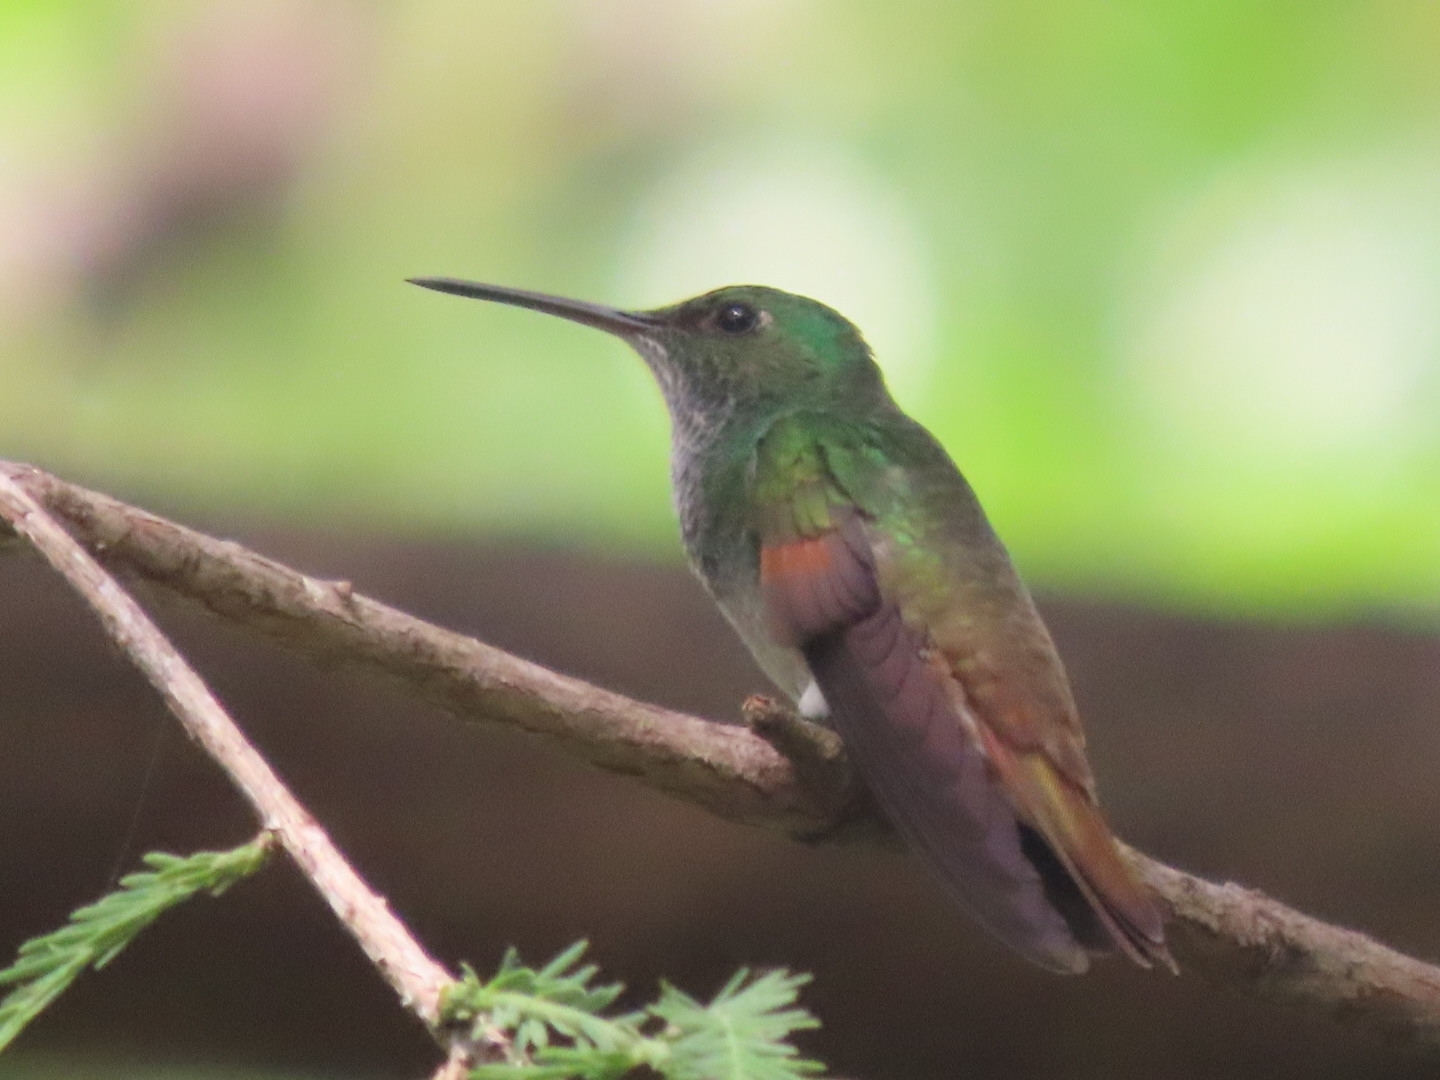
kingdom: Animalia
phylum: Chordata
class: Aves
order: Apodiformes
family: Trochilidae
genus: Saucerottia
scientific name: Saucerottia beryllina
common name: Berylline hummingbird
